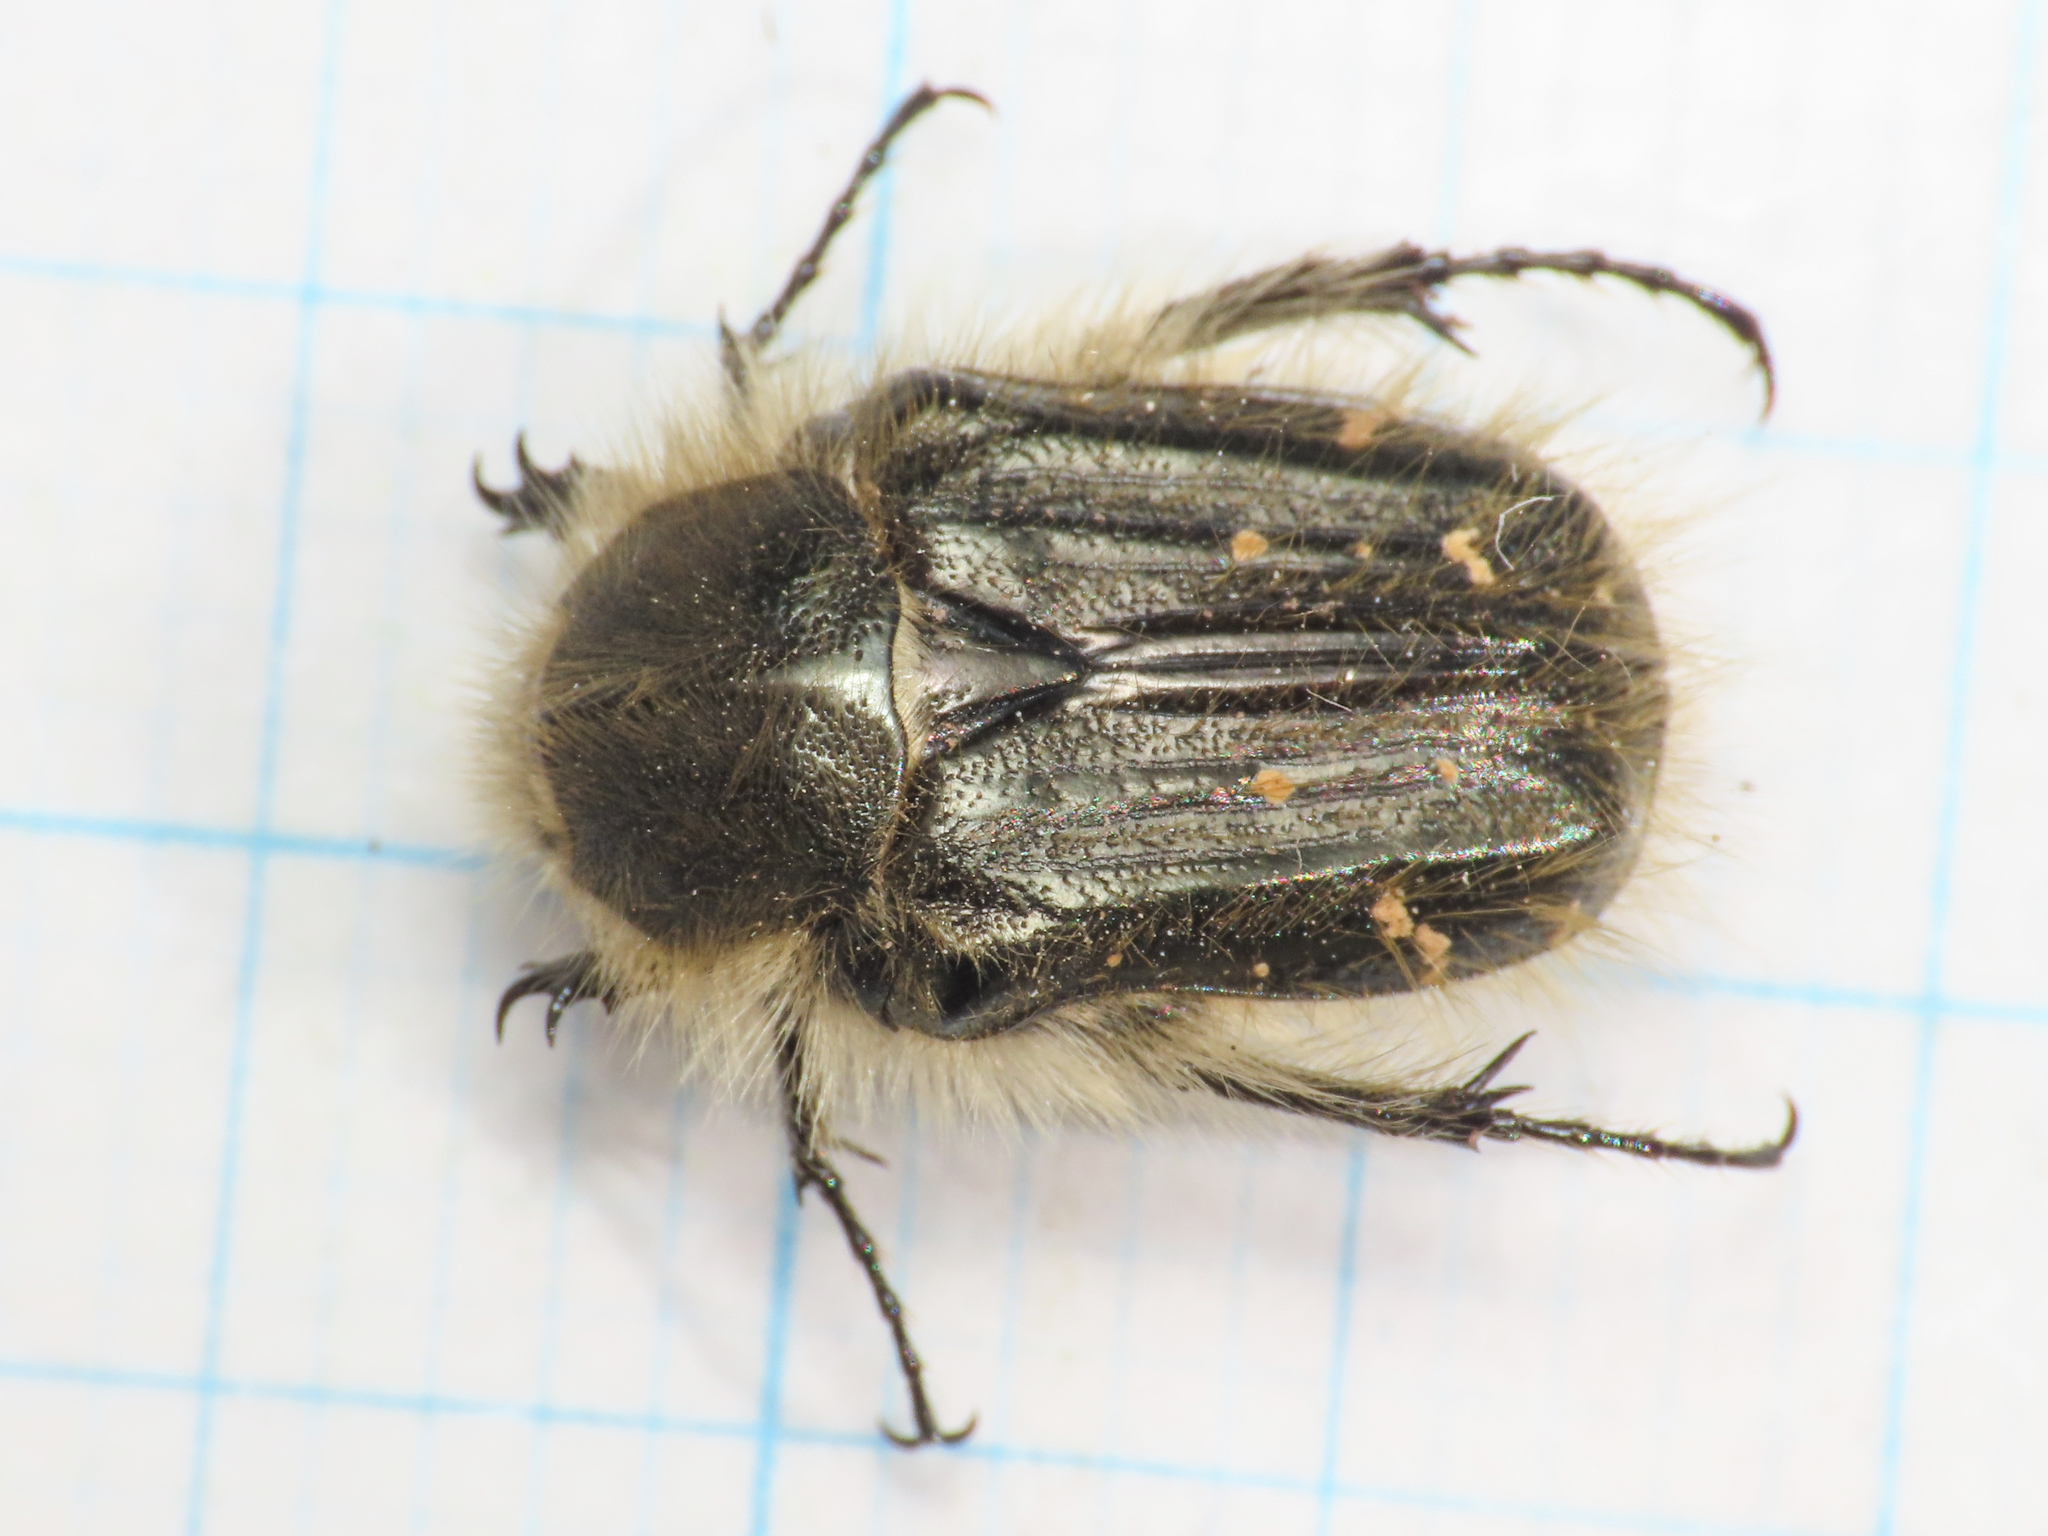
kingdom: Animalia
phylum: Arthropoda
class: Insecta
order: Coleoptera
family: Scarabaeidae
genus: Tropinota
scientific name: Tropinota squalida
